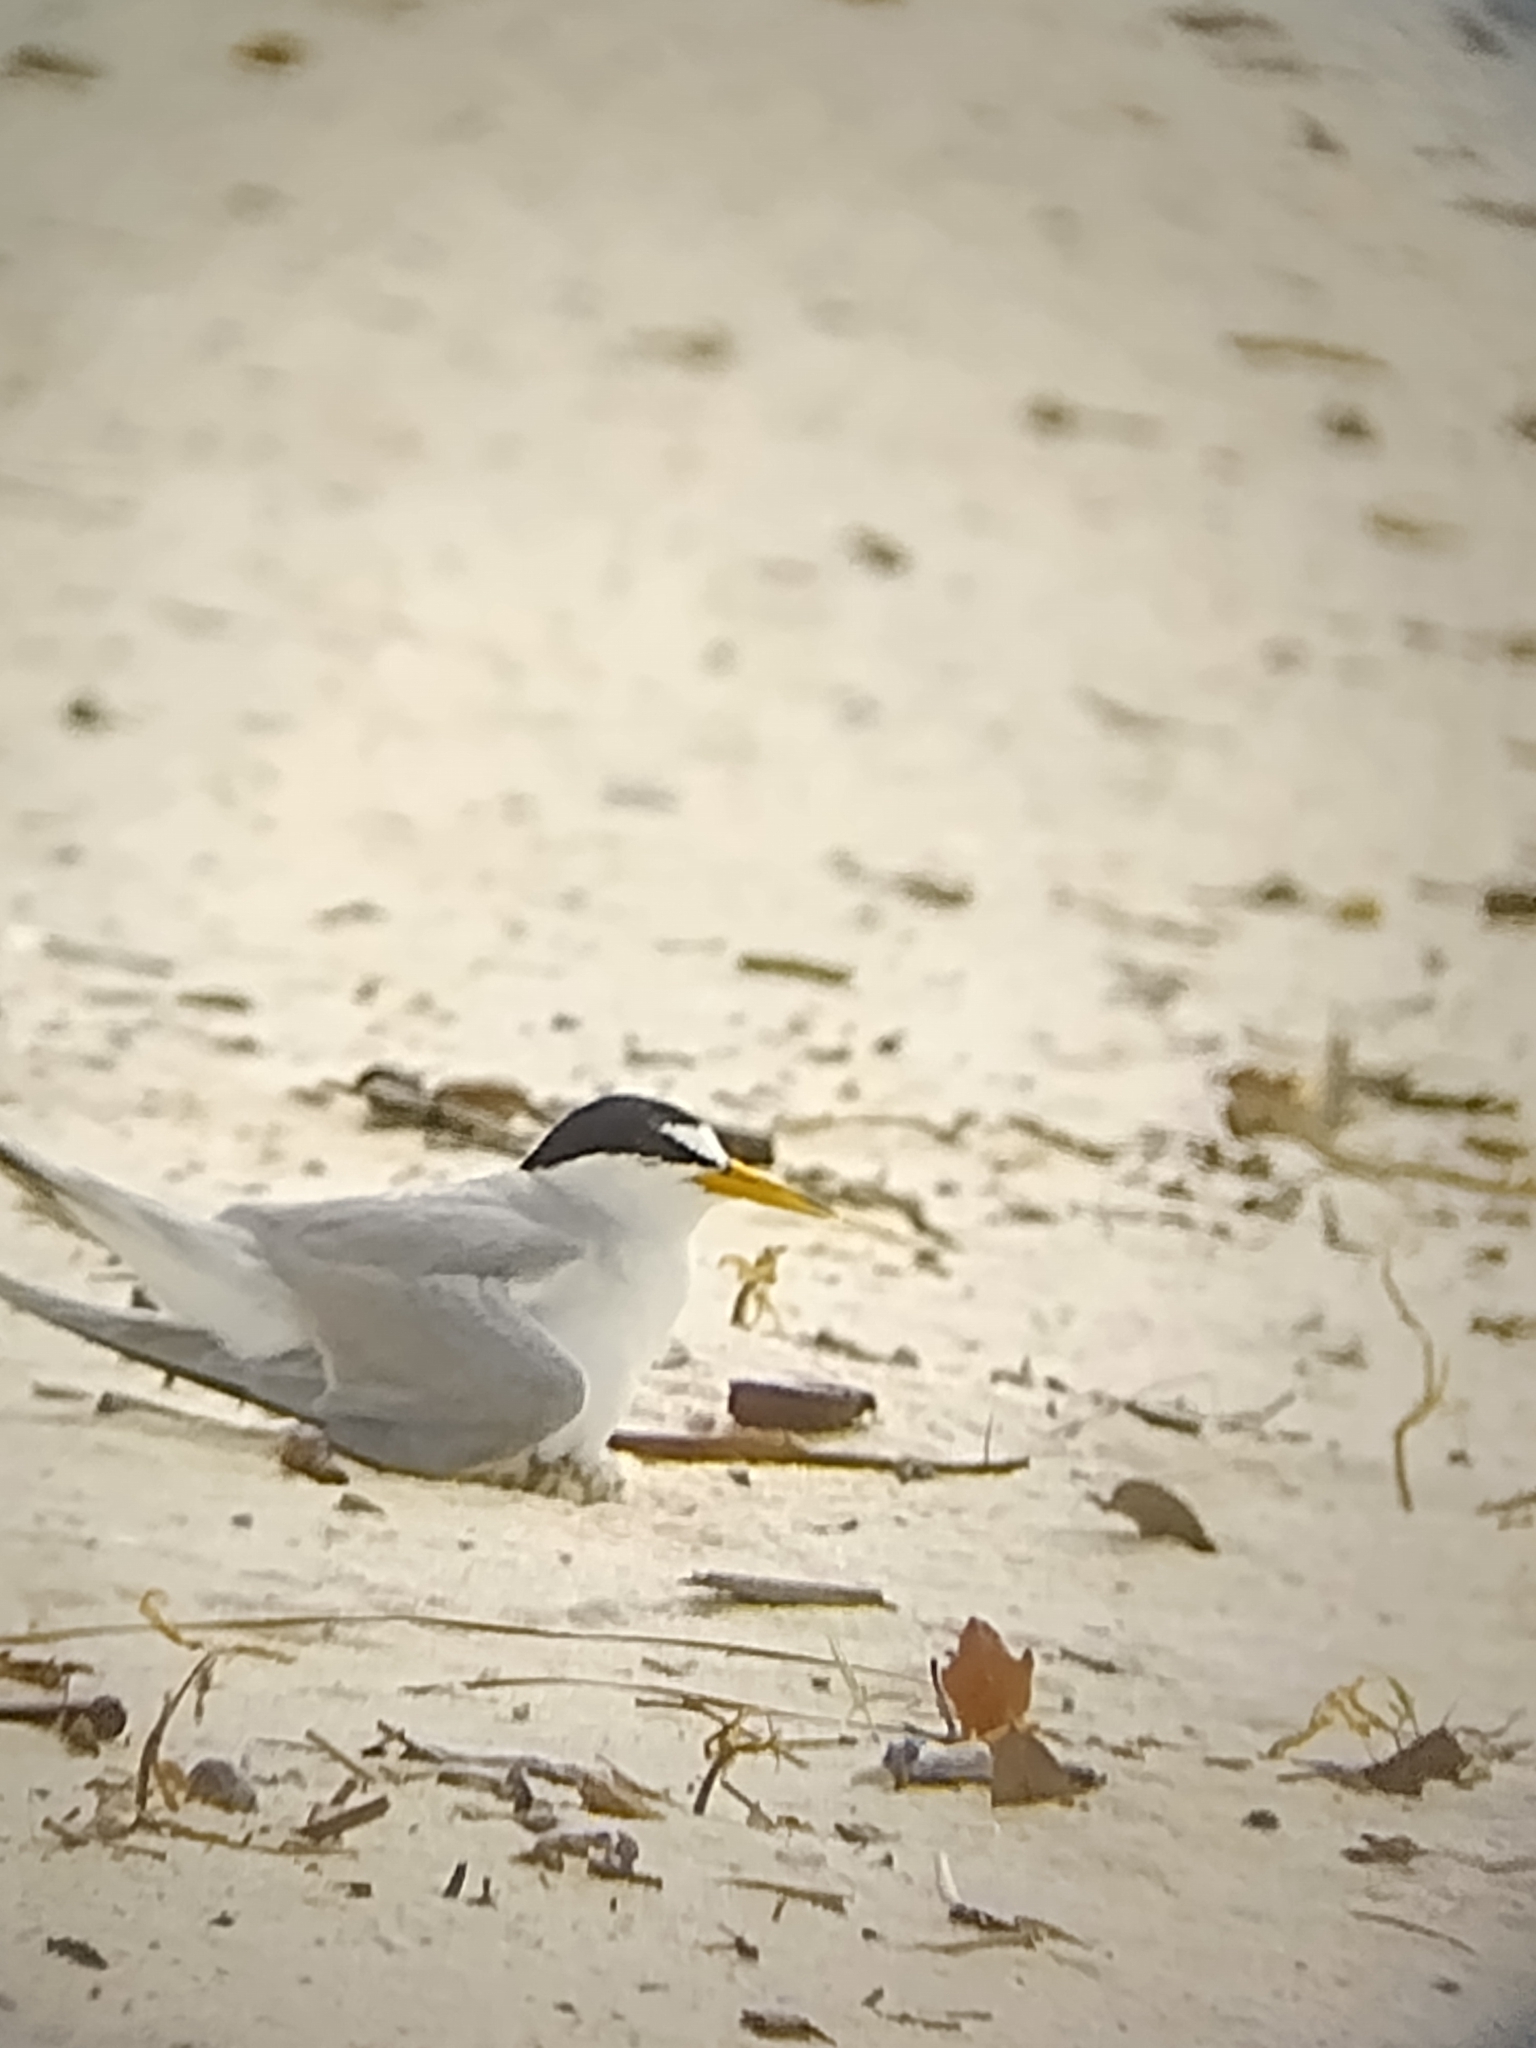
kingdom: Animalia
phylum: Chordata
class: Aves
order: Charadriiformes
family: Laridae
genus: Sternula
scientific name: Sternula antillarum
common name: Least tern
